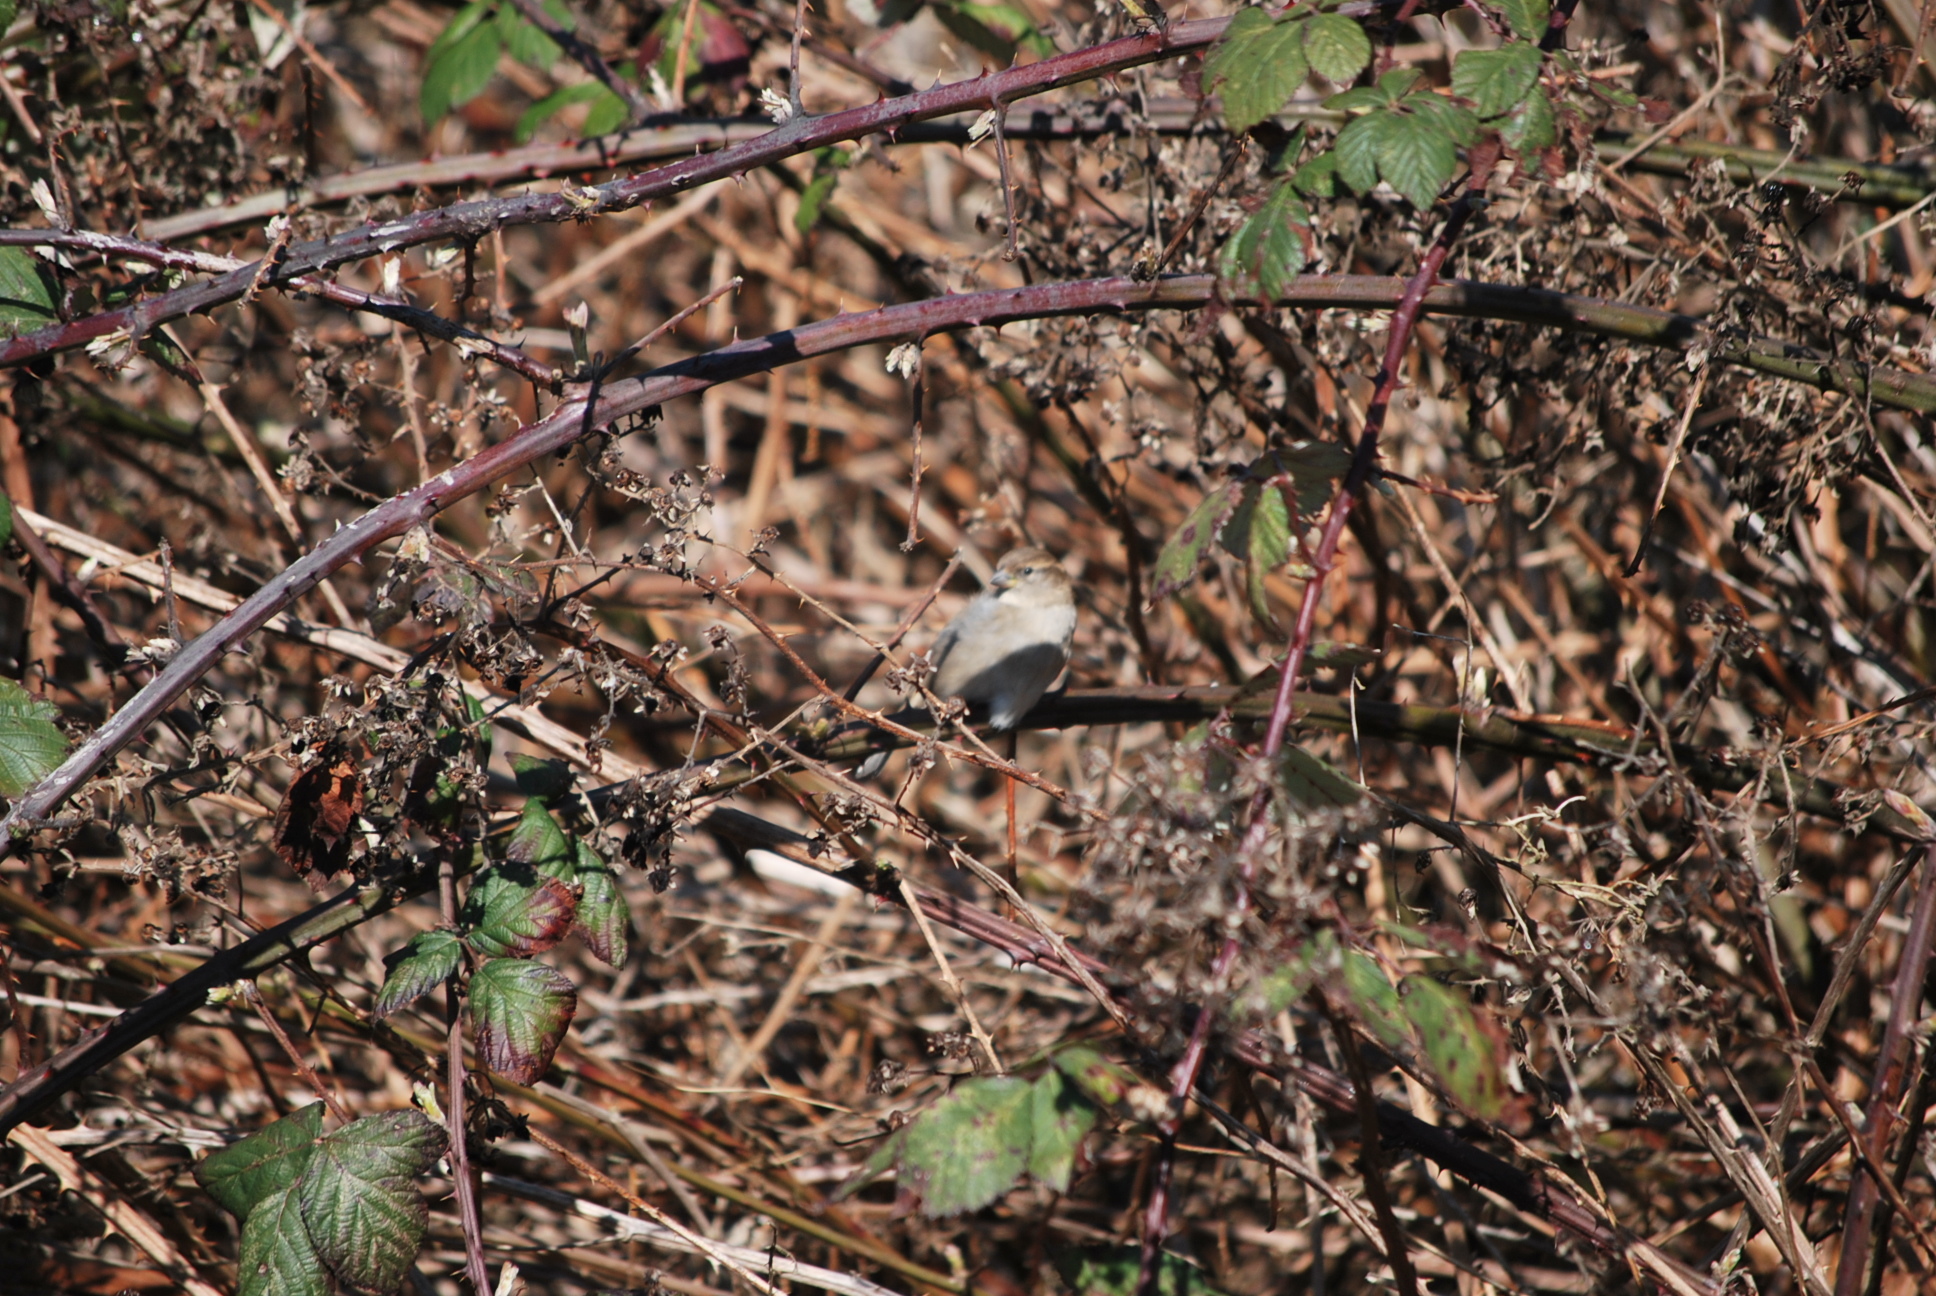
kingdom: Animalia
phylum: Chordata
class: Aves
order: Passeriformes
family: Passeridae
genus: Passer
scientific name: Passer domesticus
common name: House sparrow
